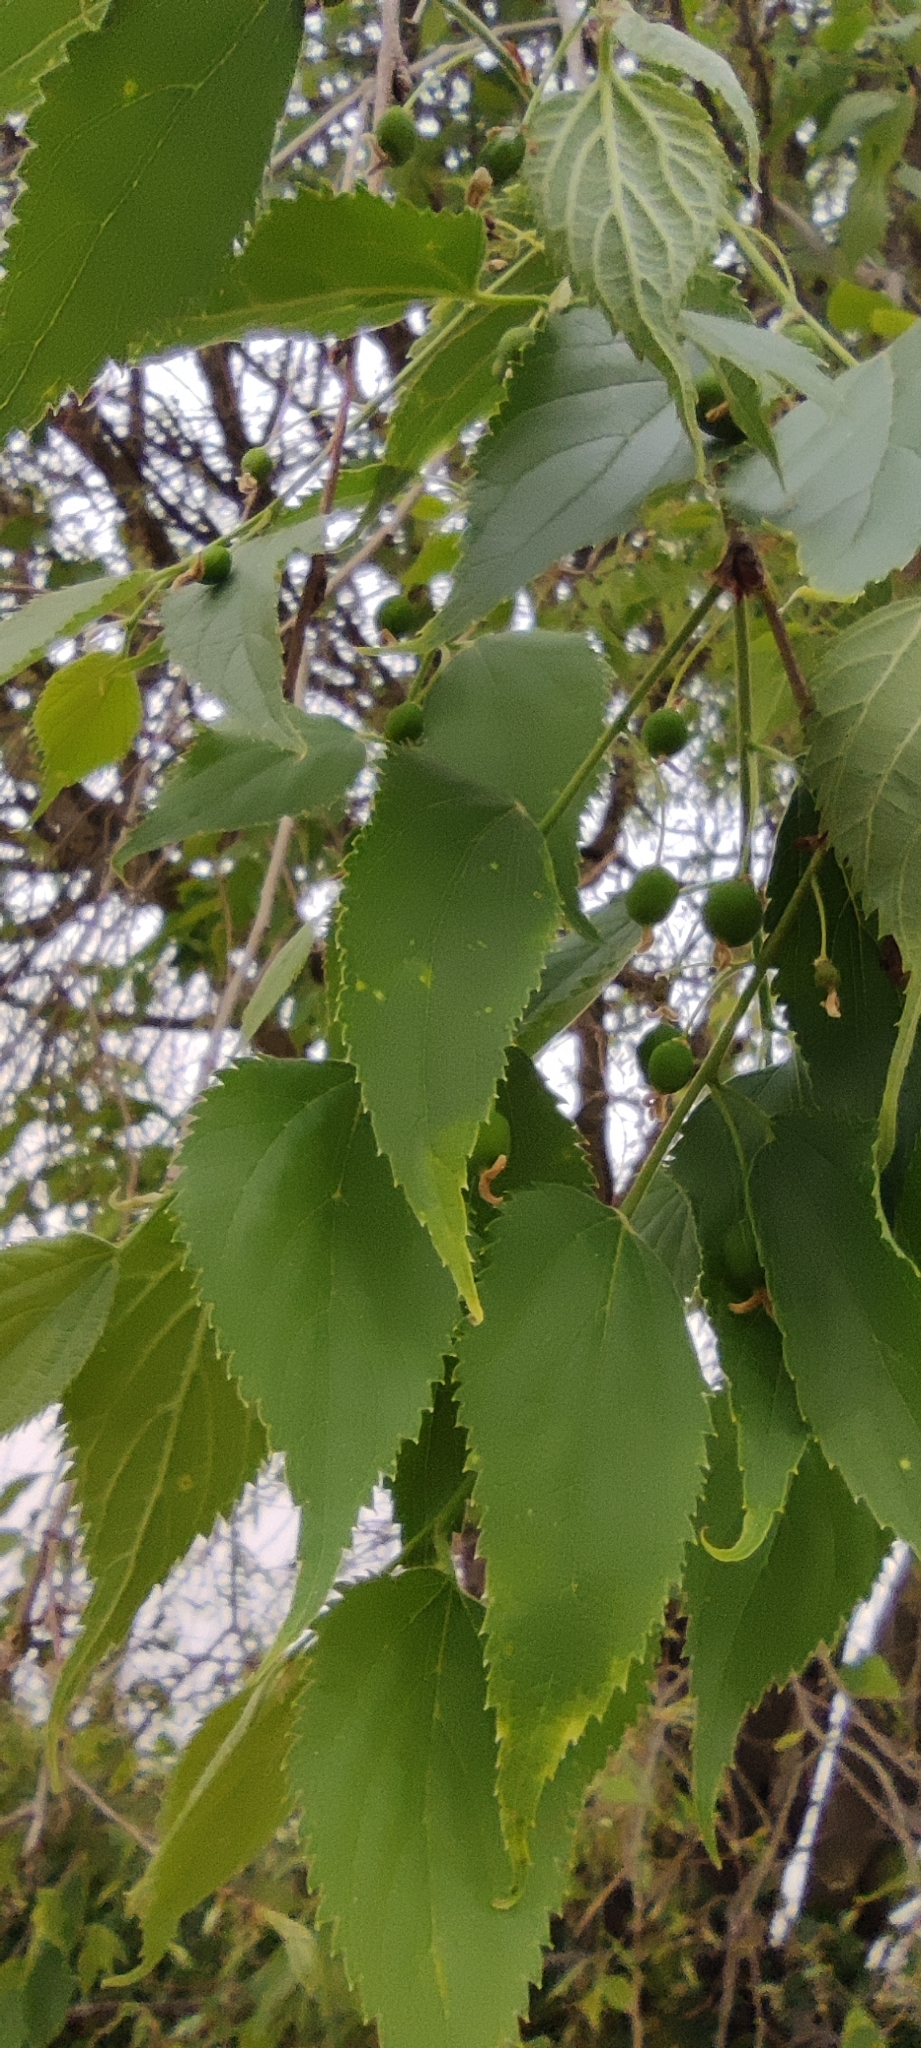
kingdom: Plantae
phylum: Tracheophyta
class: Magnoliopsida
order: Rosales
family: Cannabaceae
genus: Celtis
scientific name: Celtis australis
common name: European hackberry
